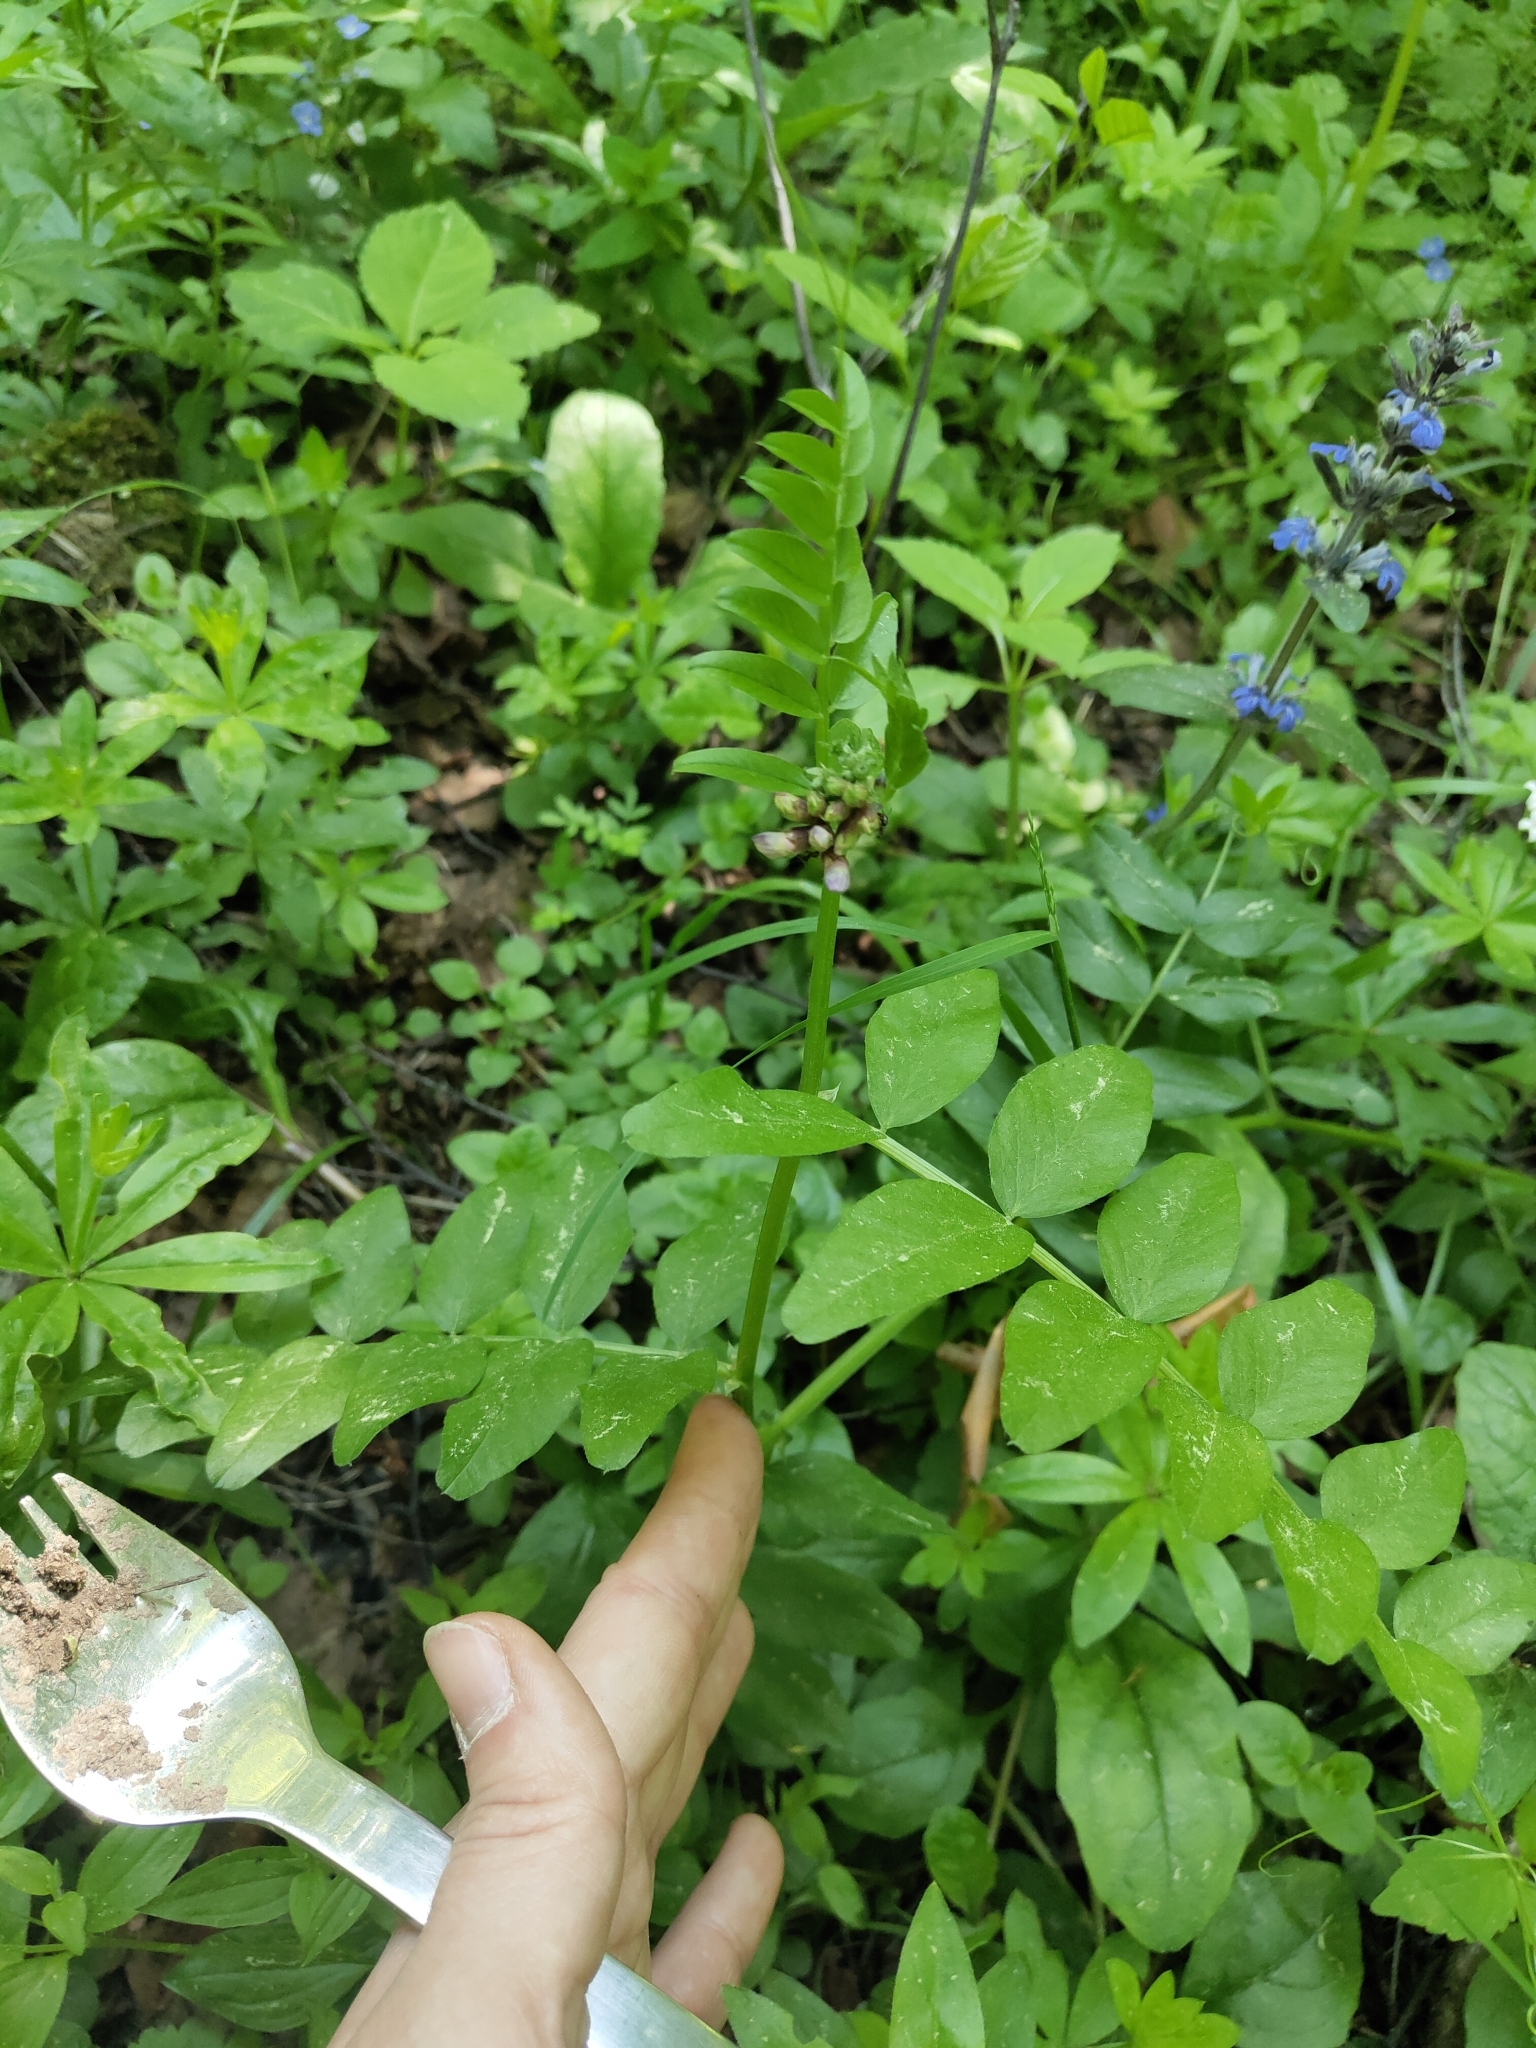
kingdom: Plantae
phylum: Tracheophyta
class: Magnoliopsida
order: Fabales
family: Fabaceae
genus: Vicia
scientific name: Vicia sepium
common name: Bush vetch
